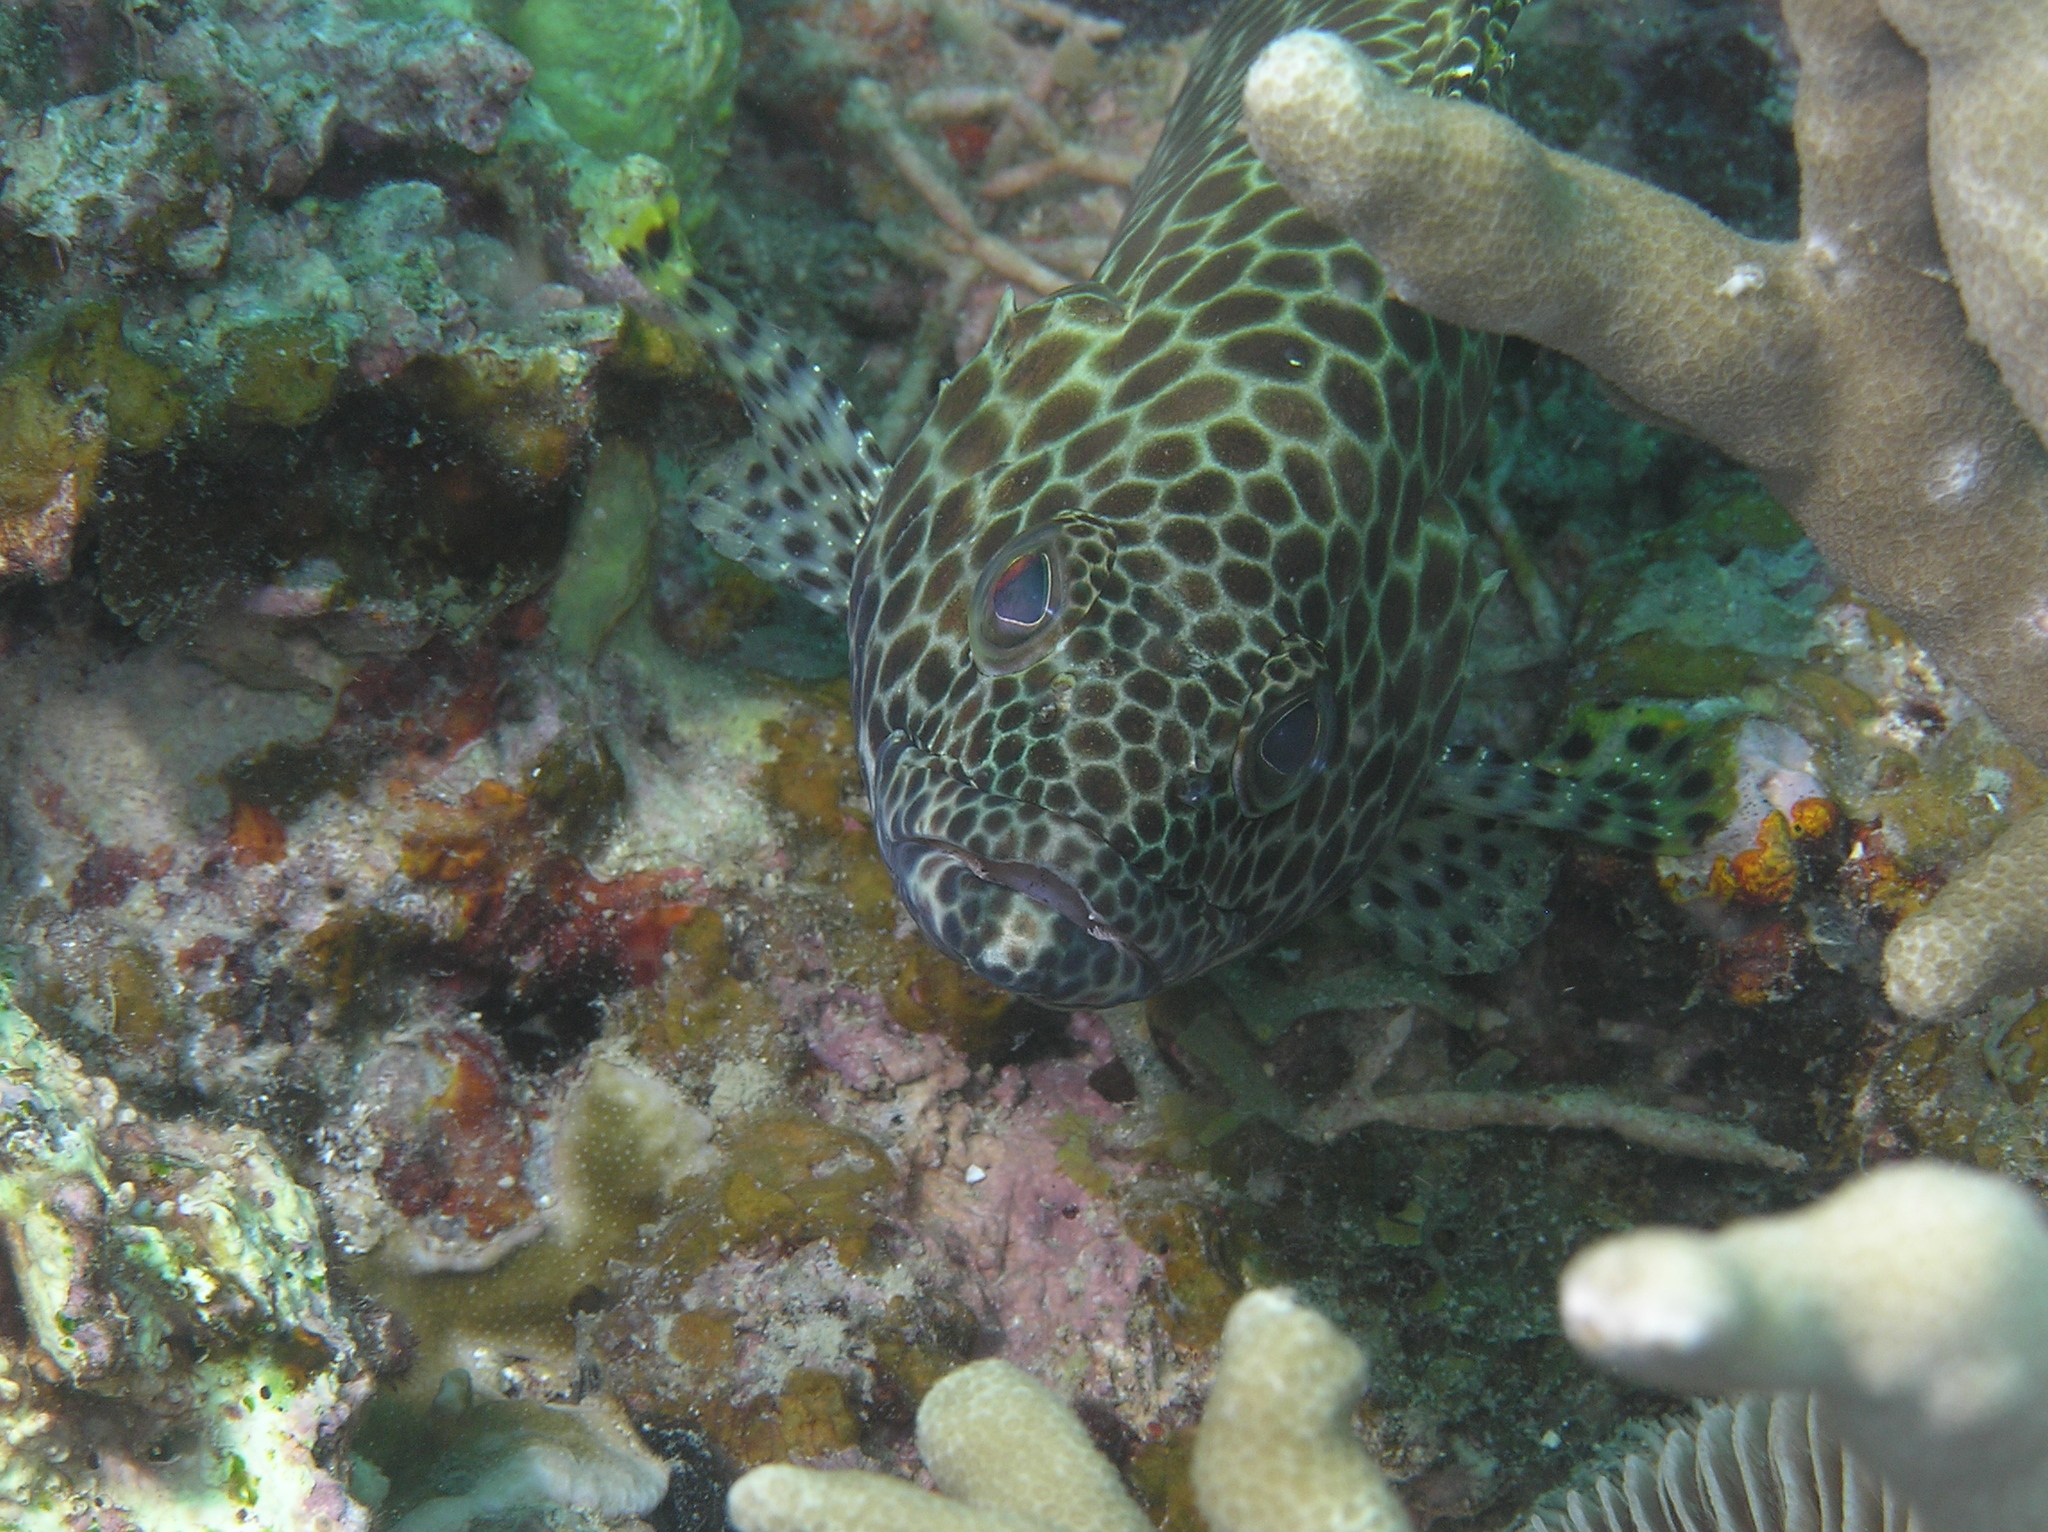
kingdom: Animalia
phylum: Chordata
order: Perciformes
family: Serranidae
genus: Epinephelus
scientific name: Epinephelus merra
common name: Honeycomb grouper
